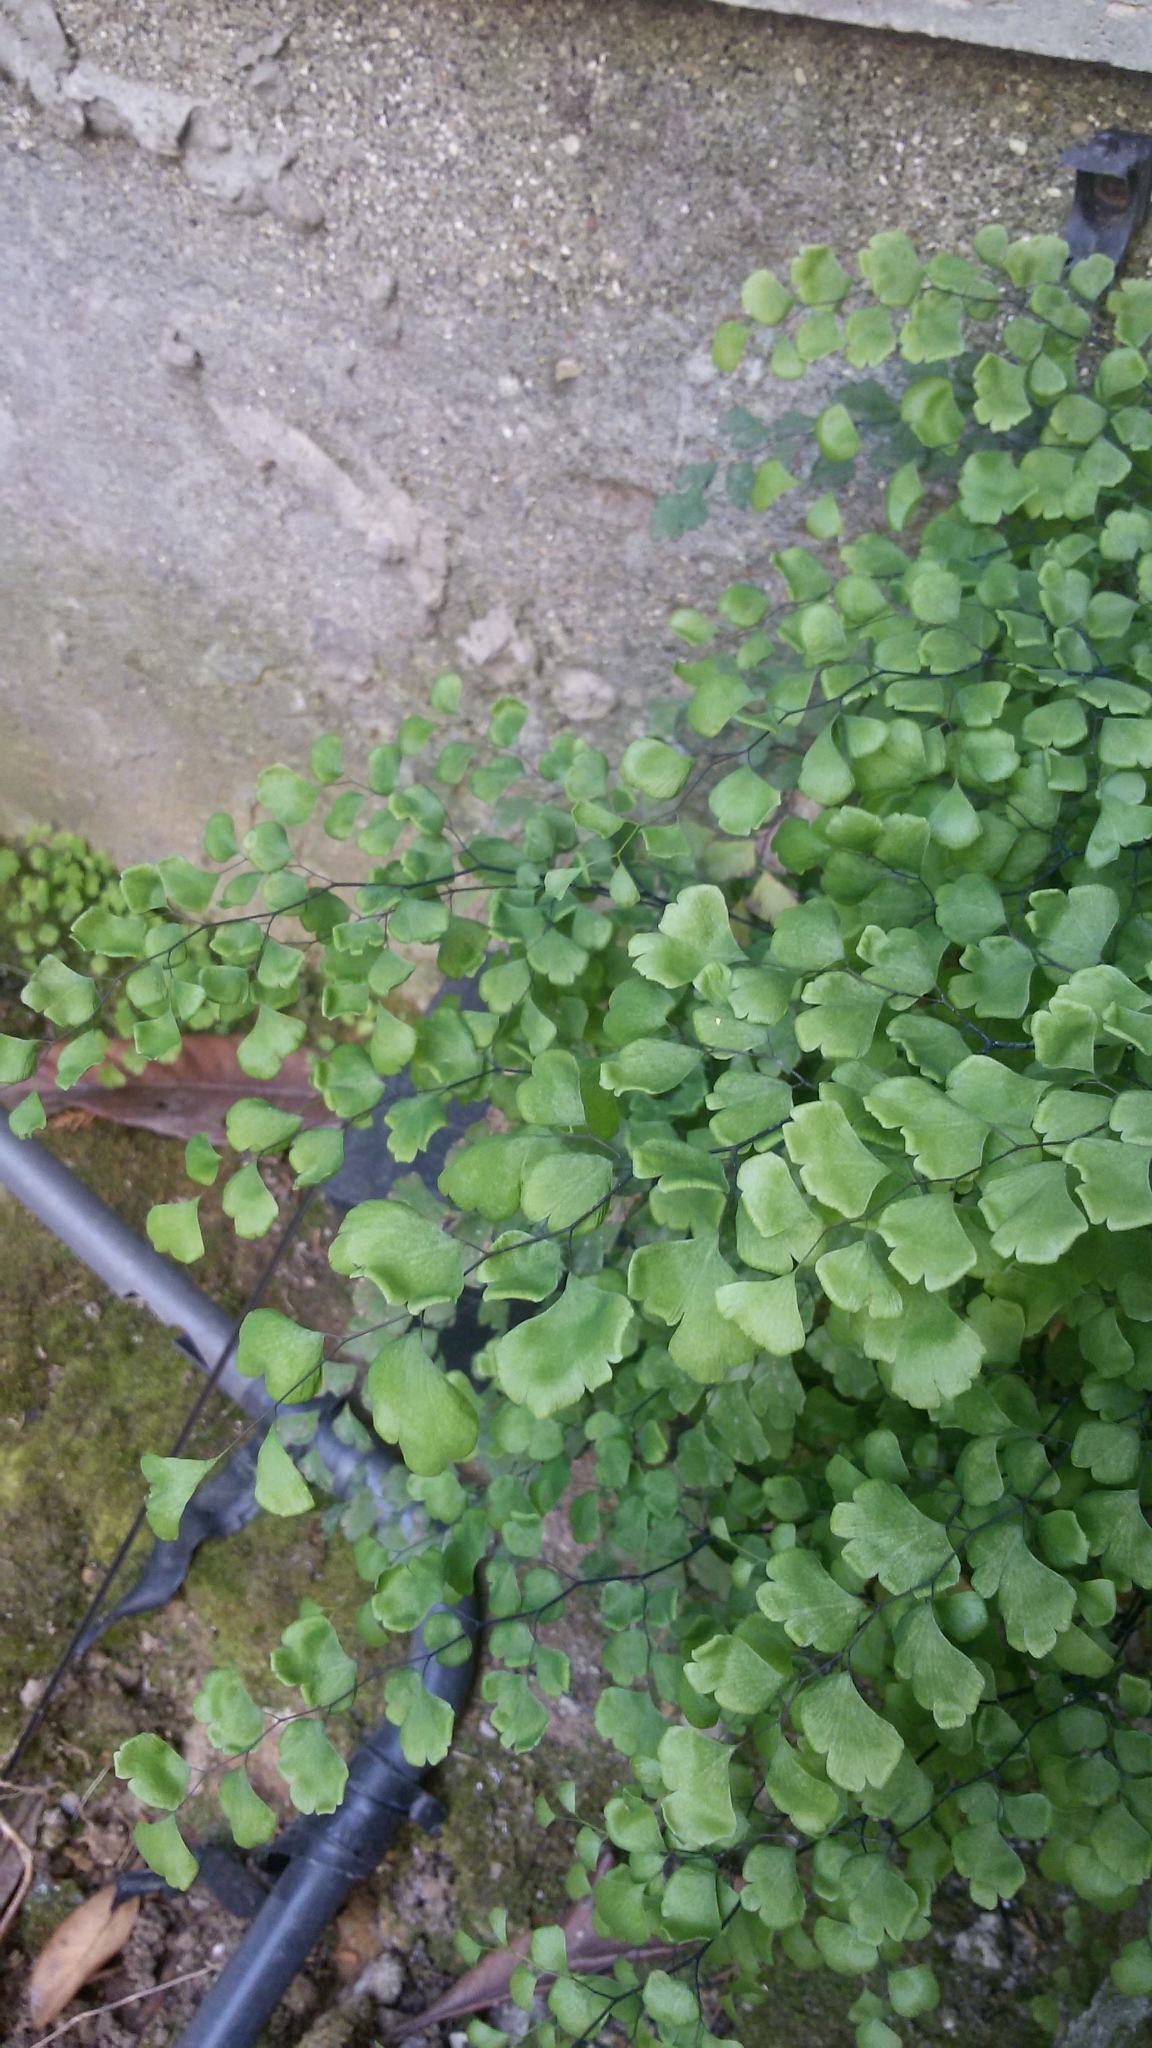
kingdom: Plantae
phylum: Tracheophyta
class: Polypodiopsida
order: Polypodiales
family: Pteridaceae
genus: Adiantum
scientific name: Adiantum capillus-veneris
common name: Maidenhair fern
